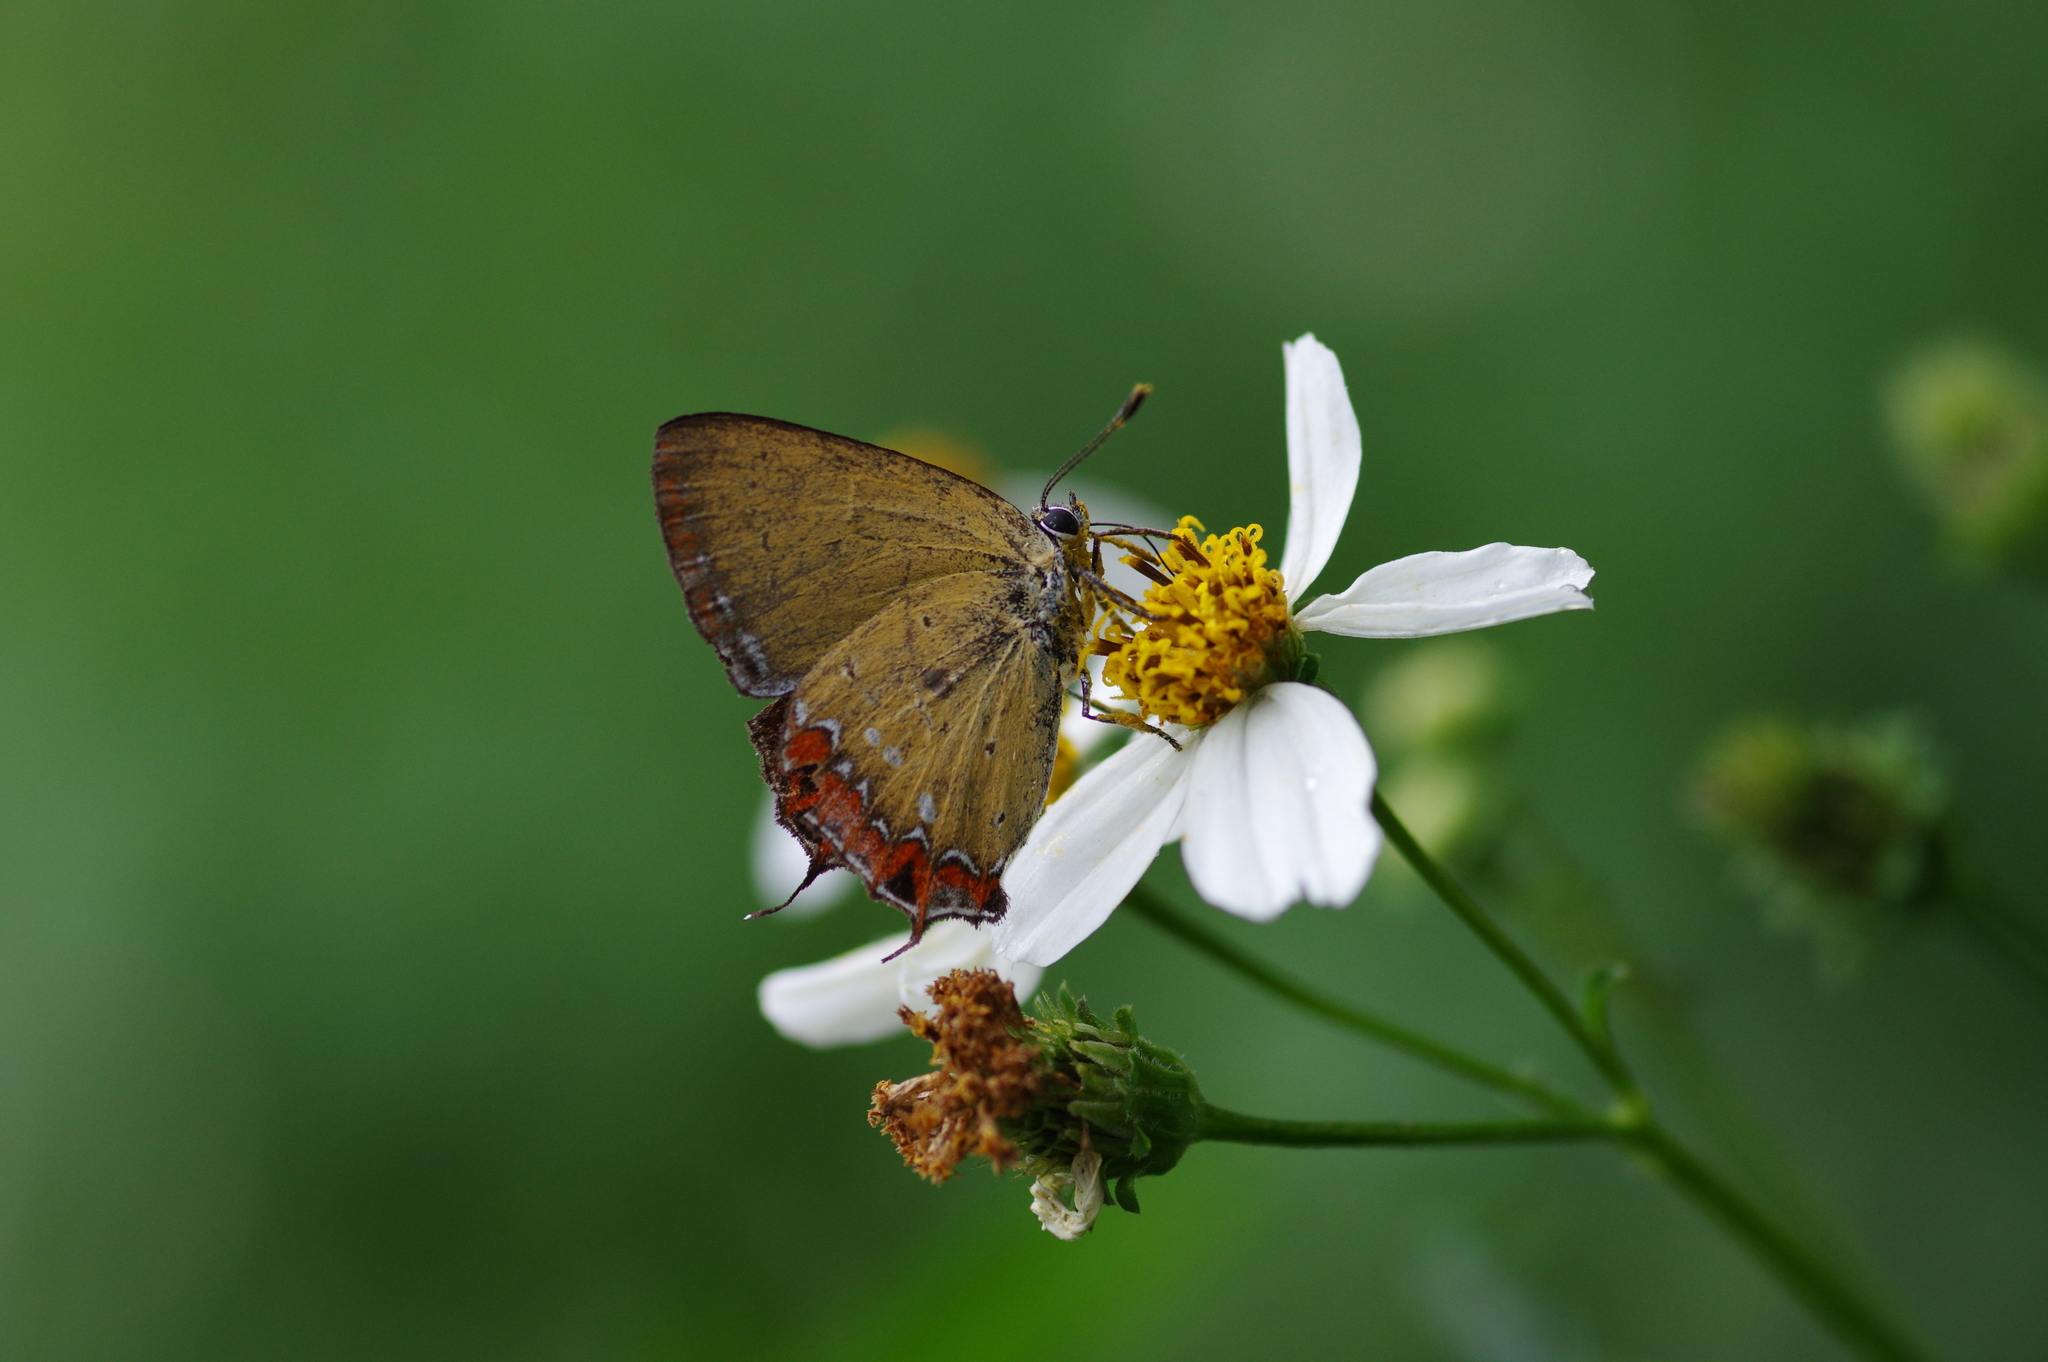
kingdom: Animalia
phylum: Arthropoda
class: Insecta
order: Lepidoptera
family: Lycaenidae
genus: Heliophorus
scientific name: Heliophorus ila
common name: Restricted purple sapphire
